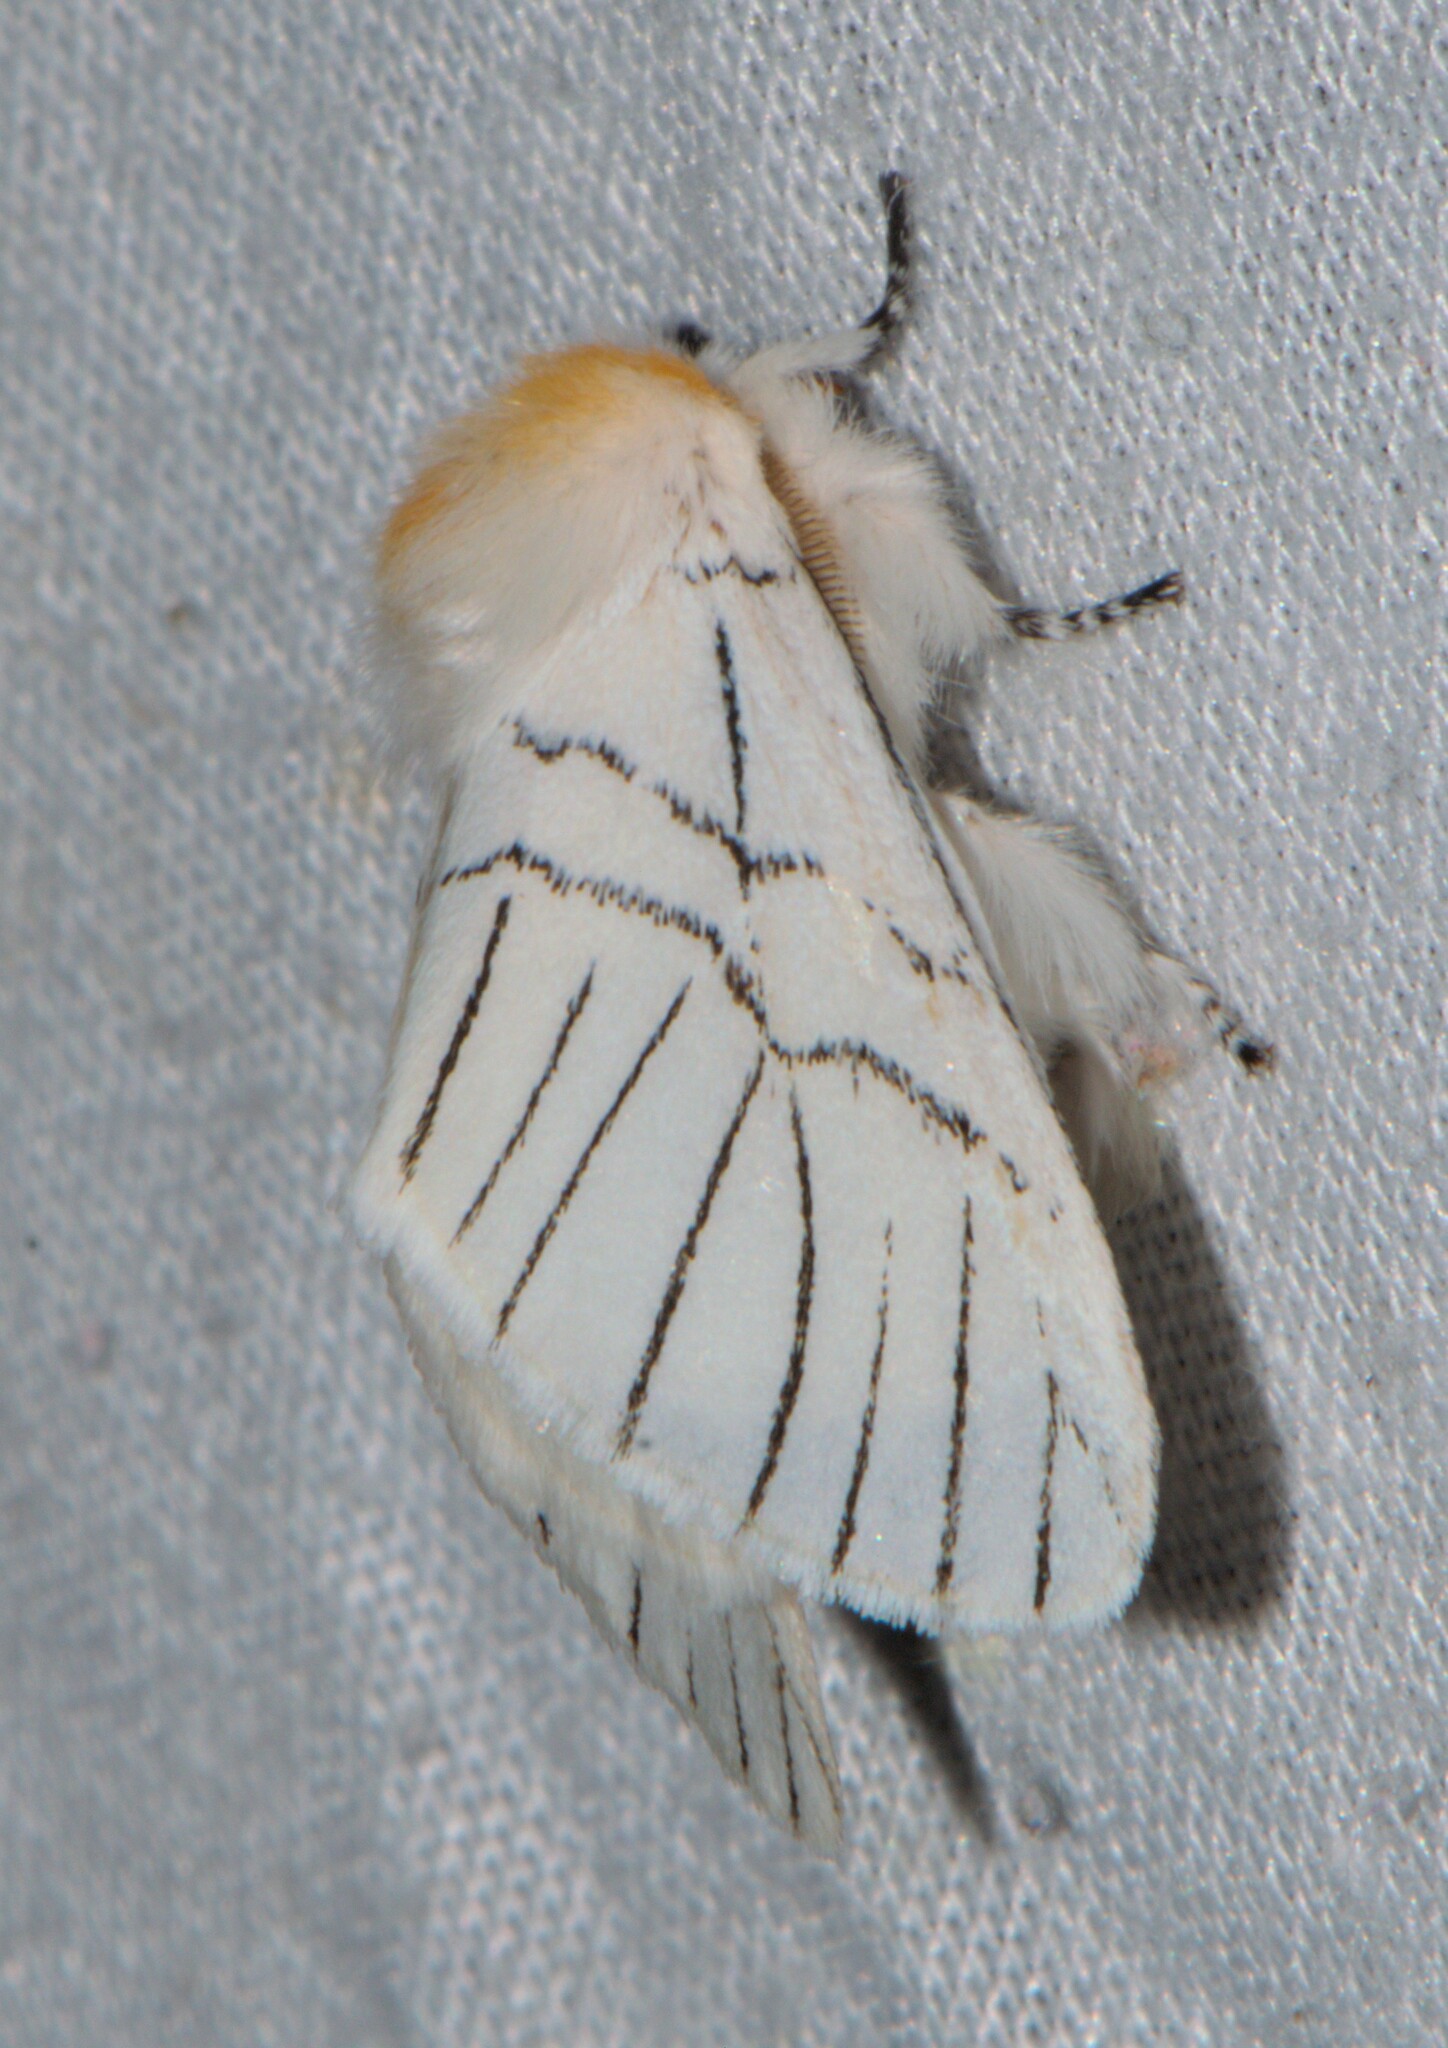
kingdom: Animalia
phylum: Arthropoda
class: Insecta
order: Lepidoptera
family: Notodontidae
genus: Oligoclona
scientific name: Oligoclona chrysolopha
